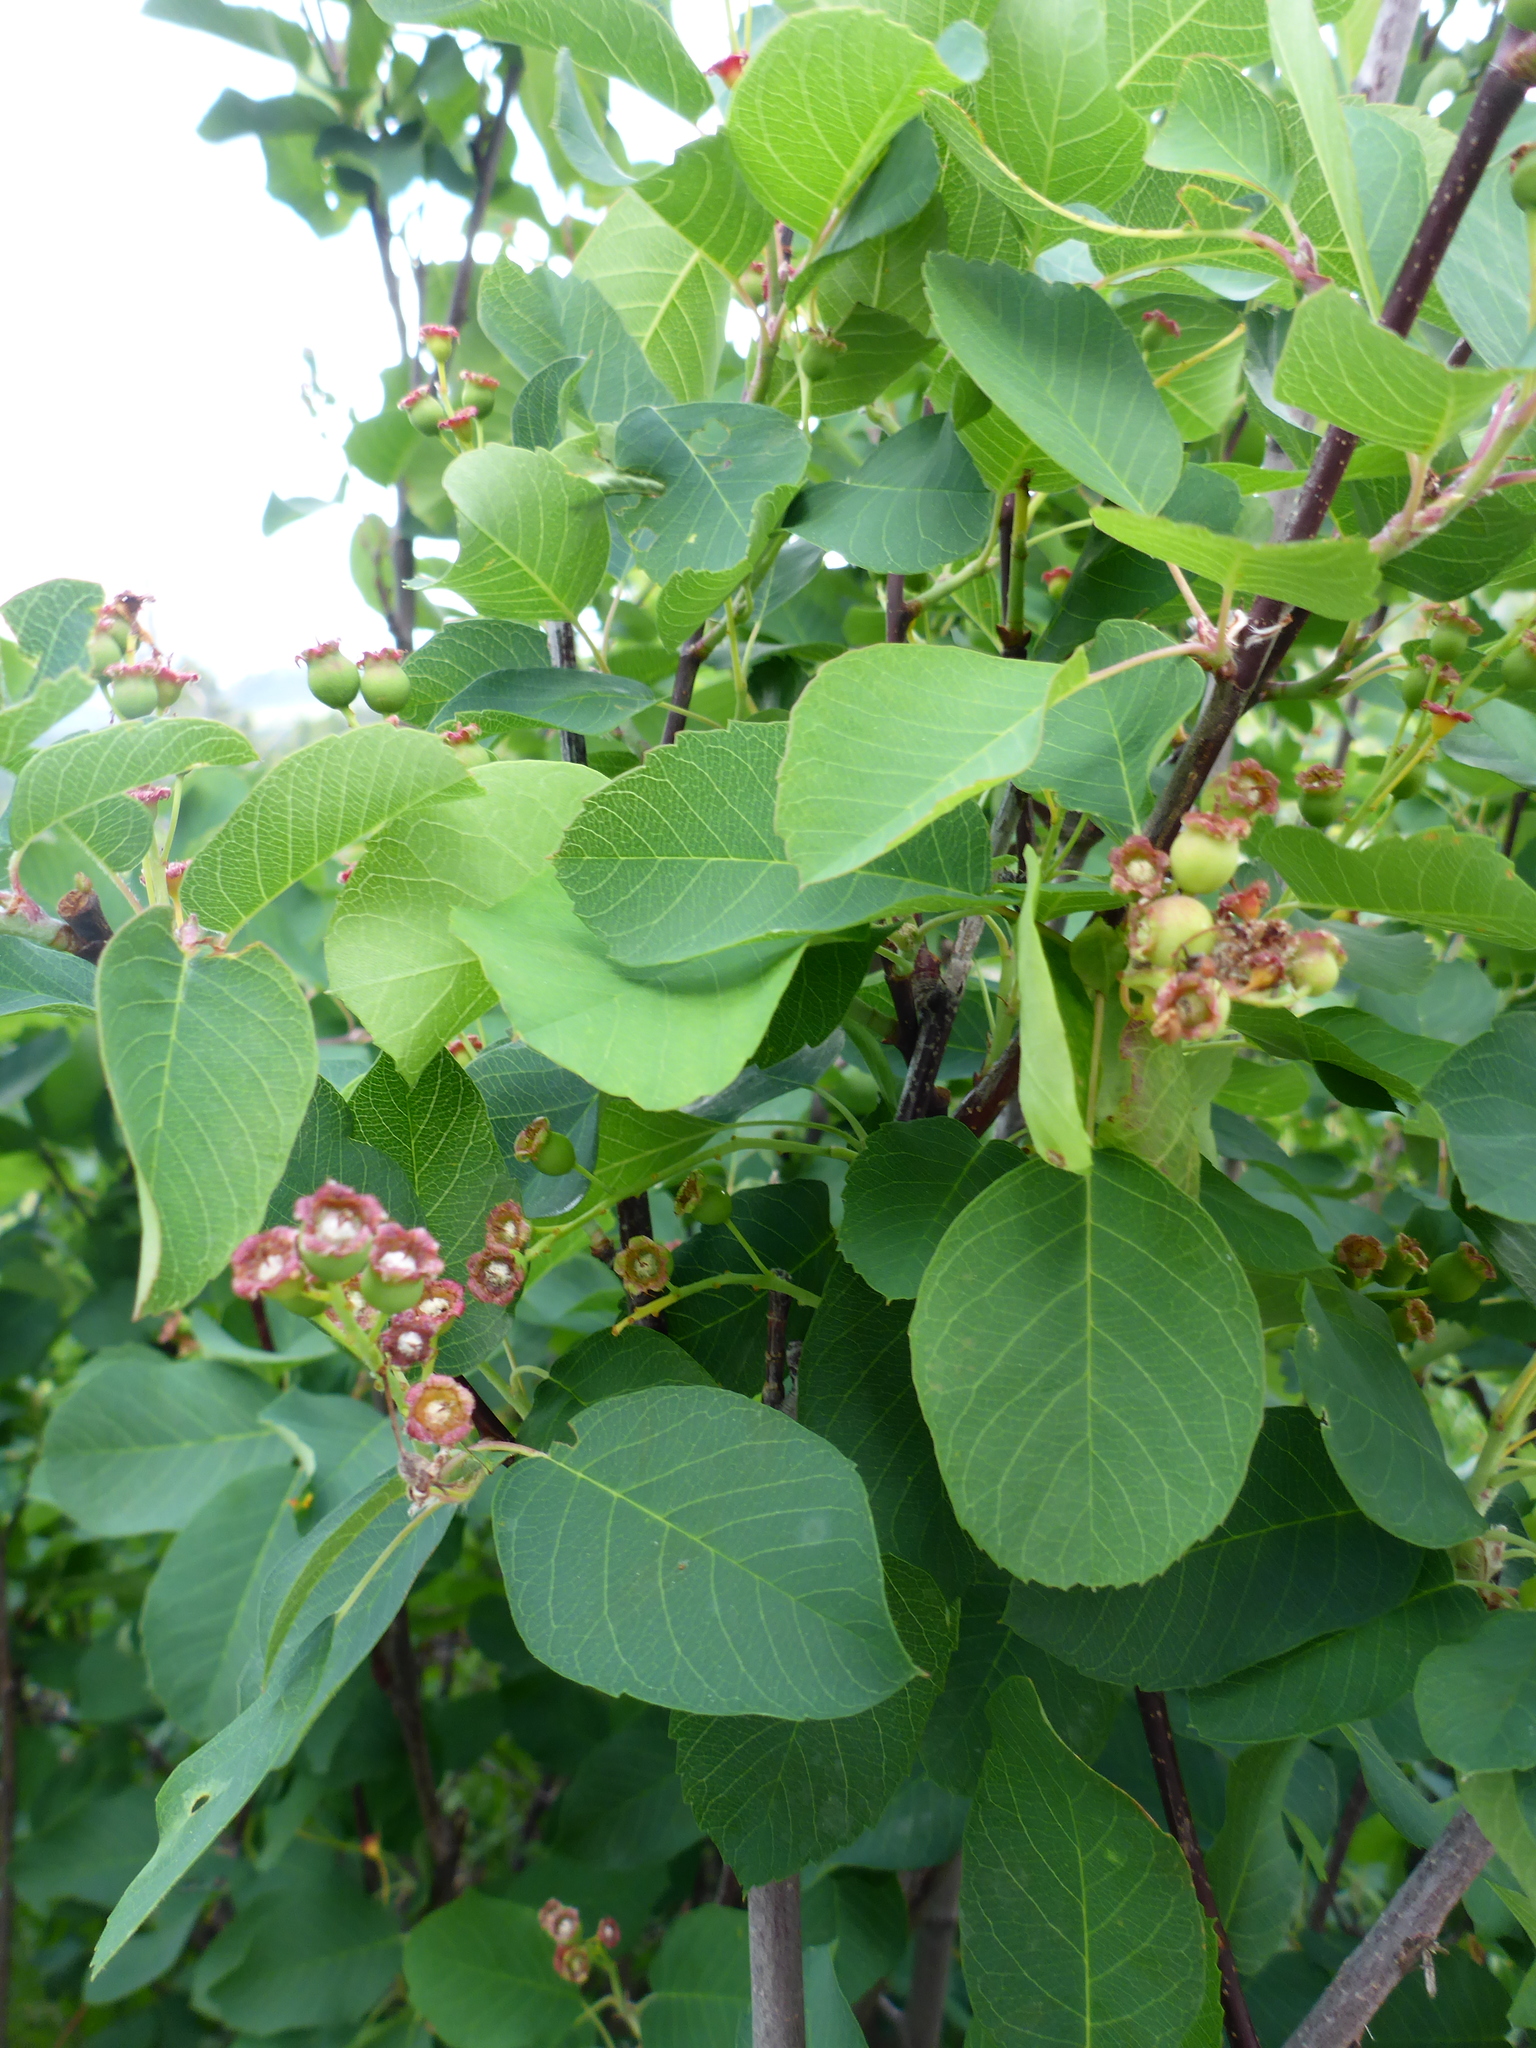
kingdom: Plantae
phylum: Tracheophyta
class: Magnoliopsida
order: Rosales
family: Rosaceae
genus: Amelanchier
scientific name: Amelanchier alnifolia
